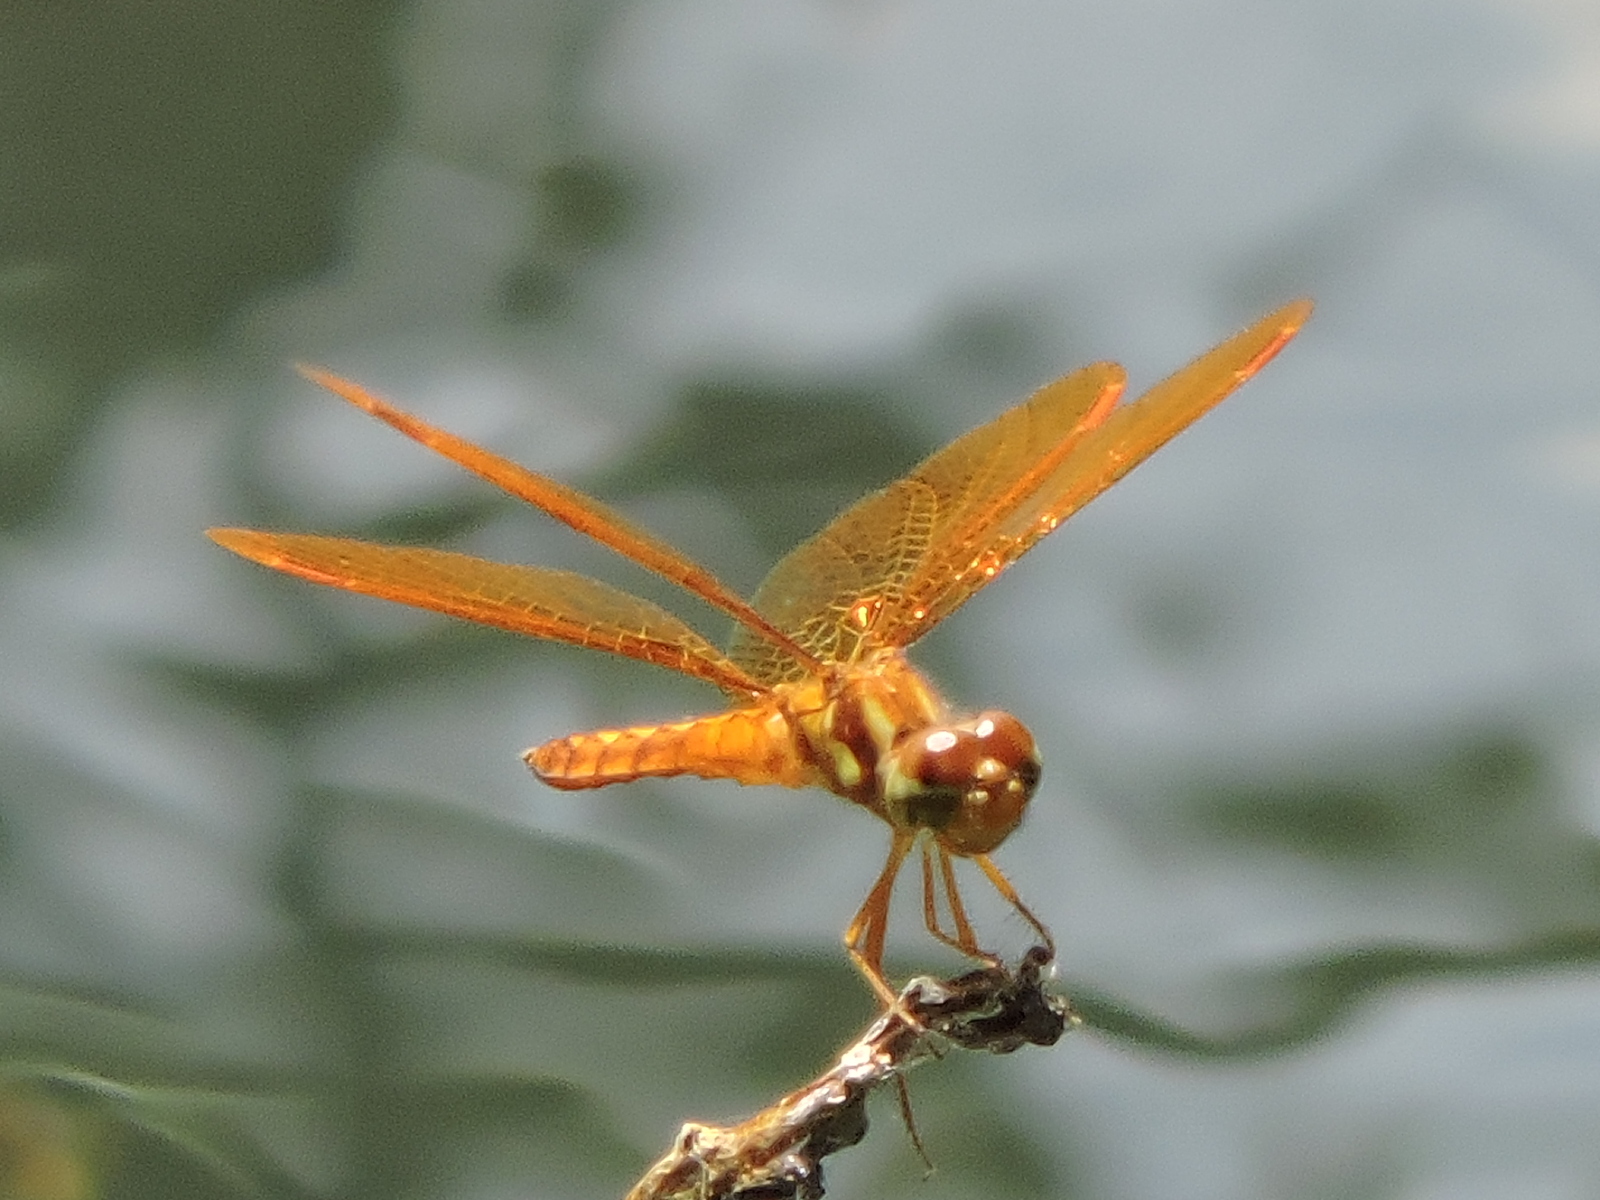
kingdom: Animalia
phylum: Arthropoda
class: Insecta
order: Odonata
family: Libellulidae
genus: Perithemis
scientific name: Perithemis tenera
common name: Eastern amberwing
